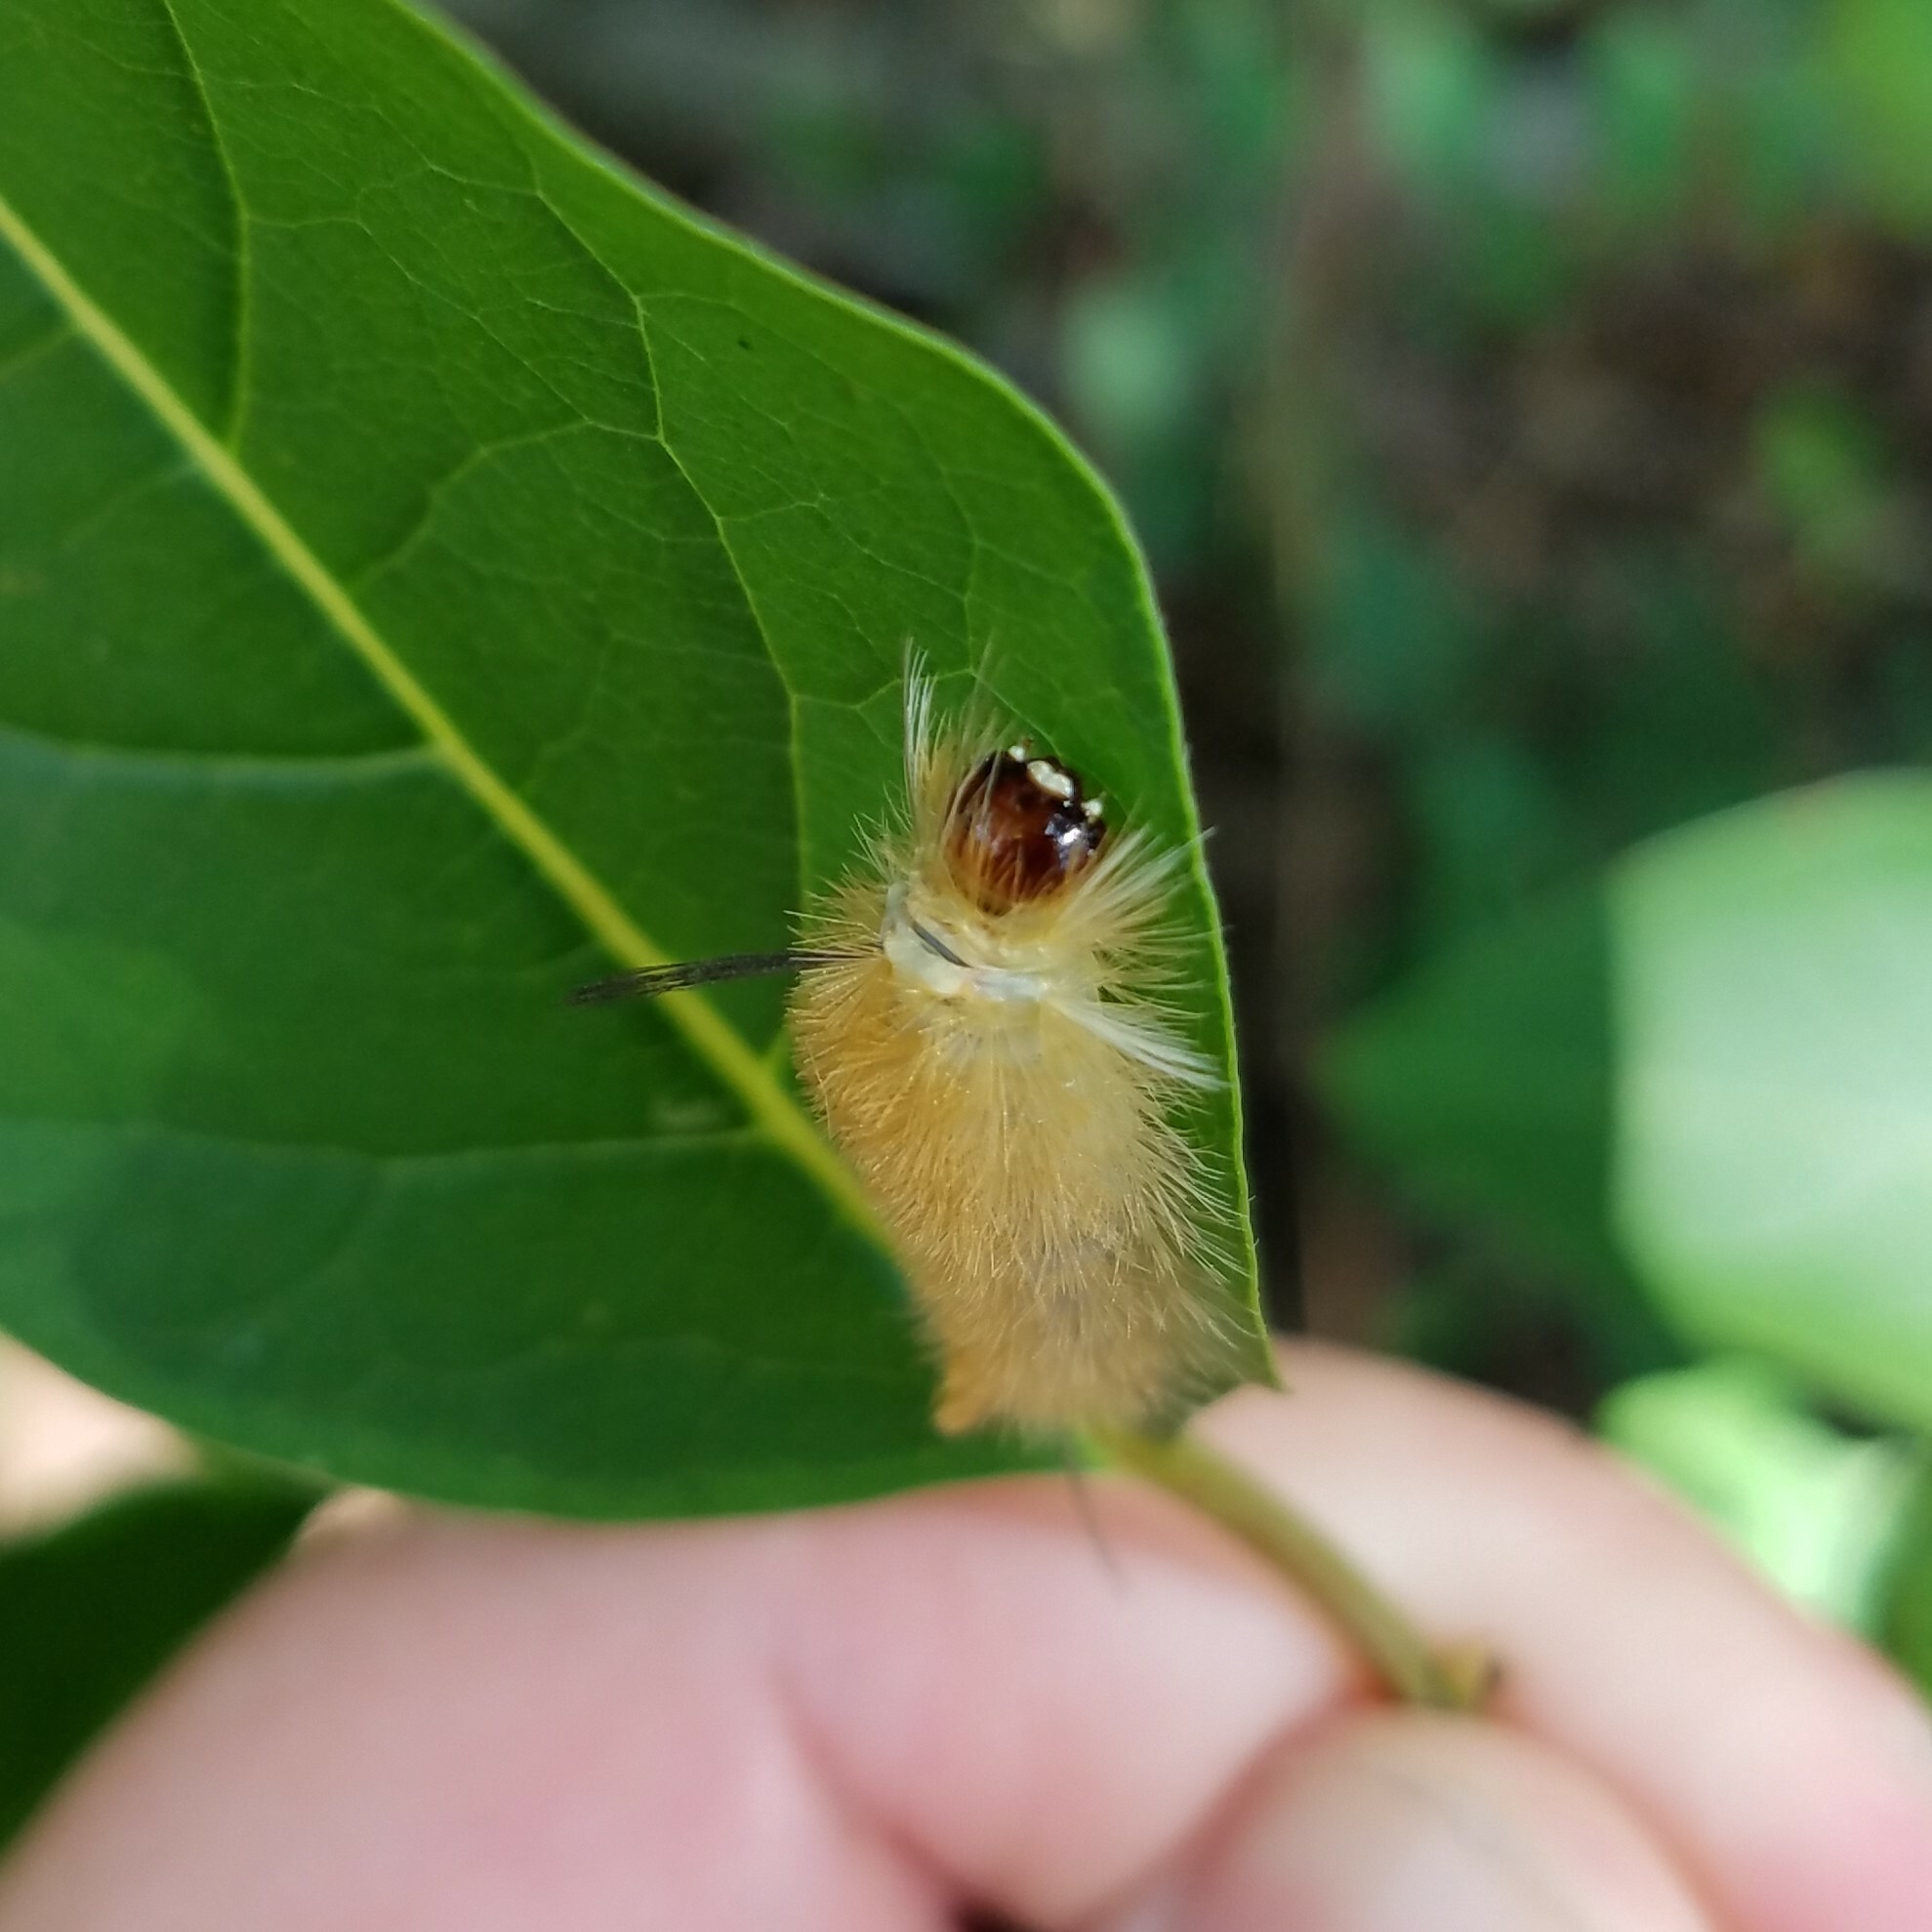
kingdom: Animalia
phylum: Arthropoda
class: Insecta
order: Lepidoptera
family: Erebidae
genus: Halysidota
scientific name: Halysidota tessellaris
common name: Banded tussock moth
